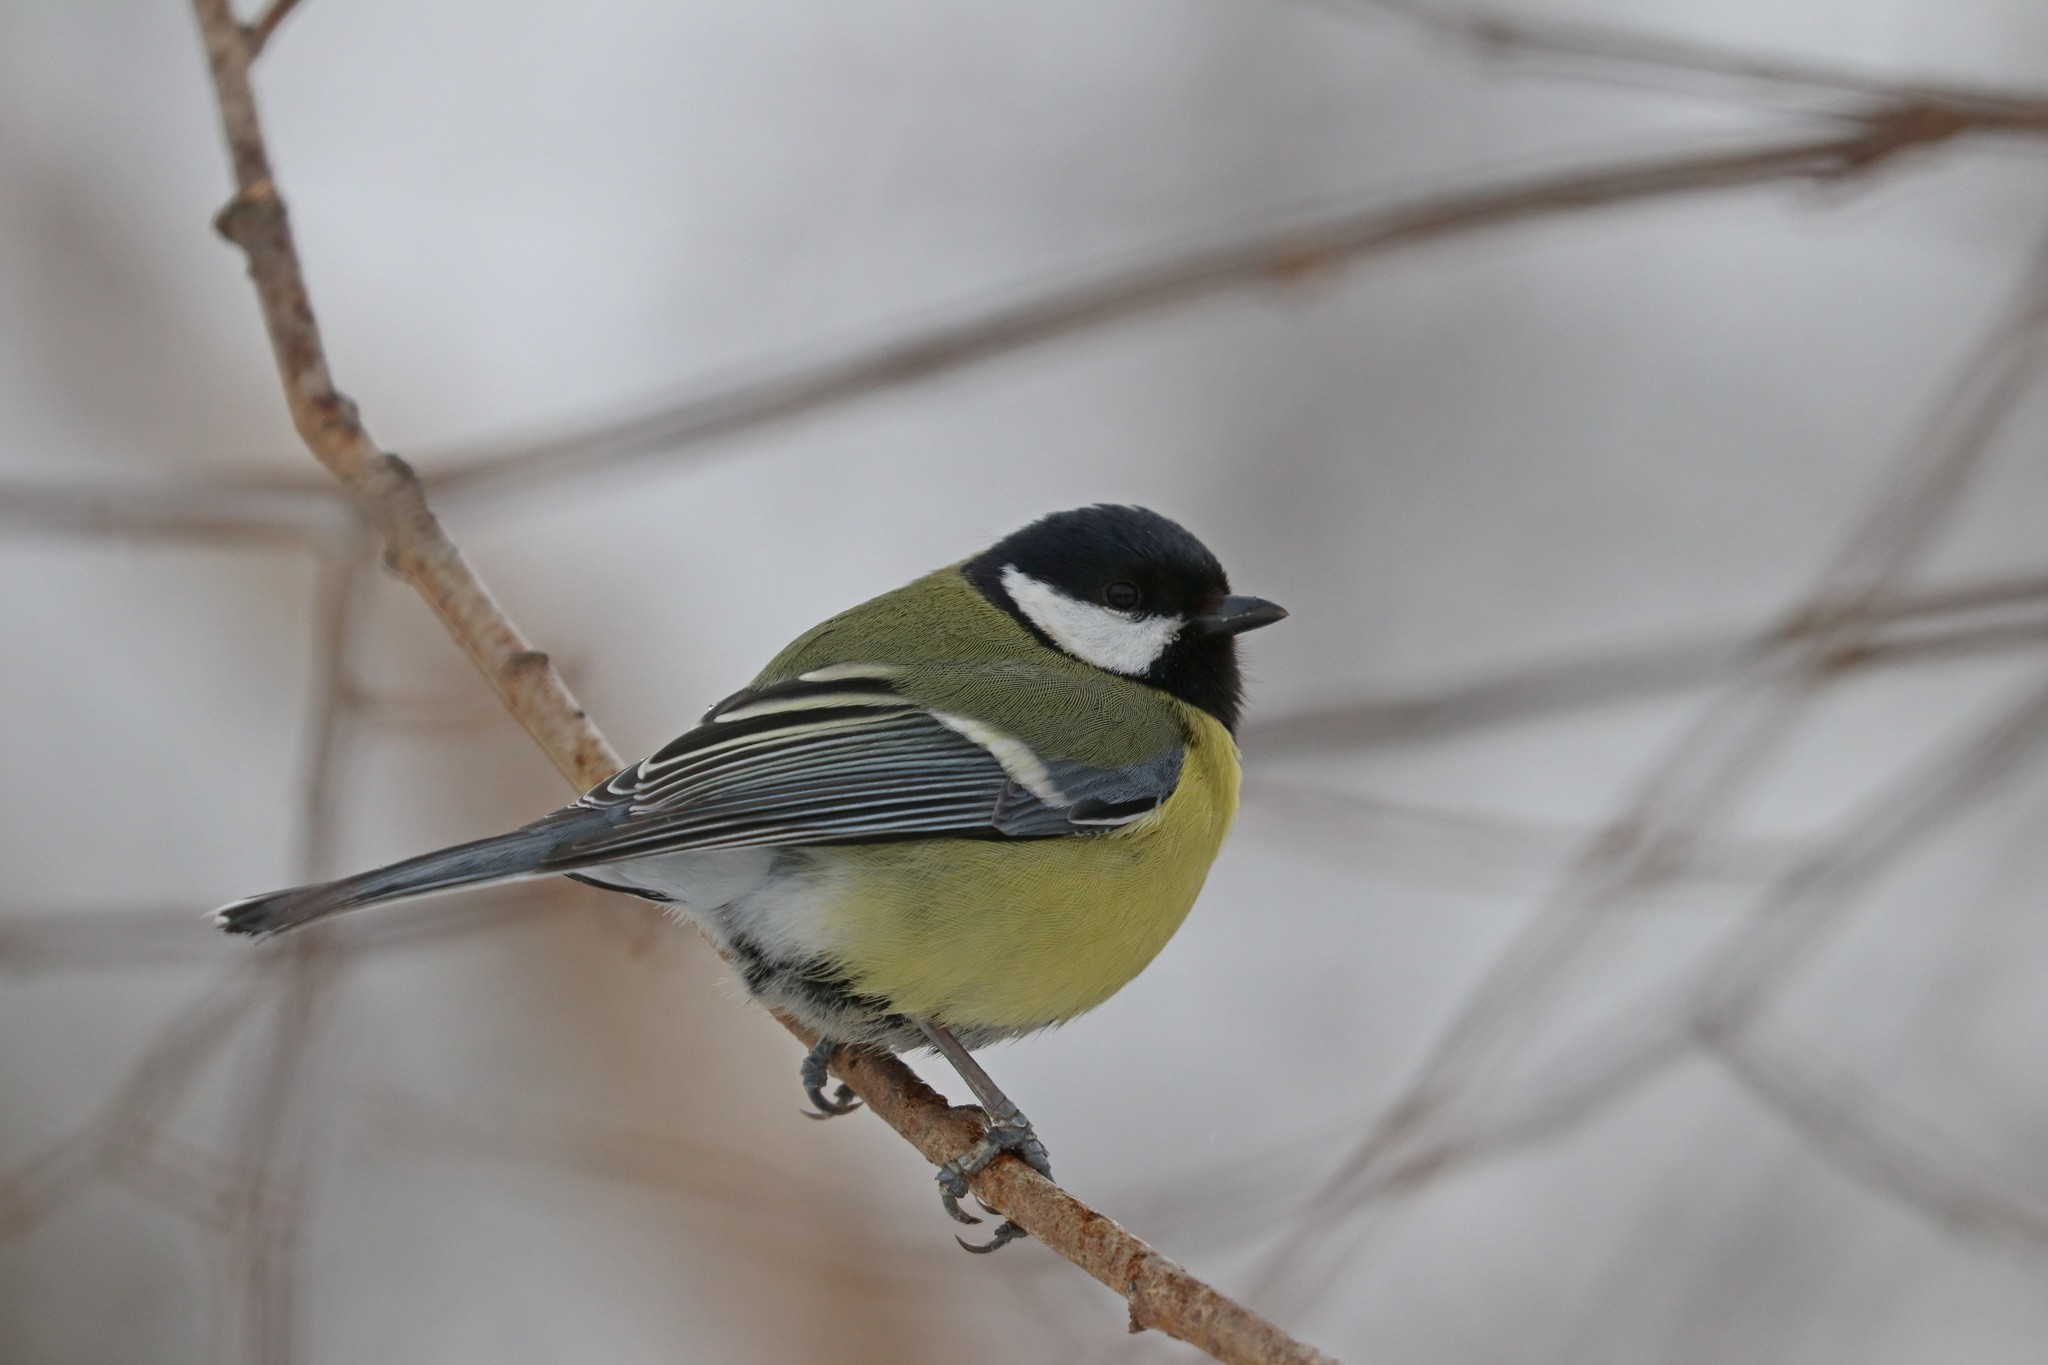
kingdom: Animalia
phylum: Chordata
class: Aves
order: Passeriformes
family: Paridae
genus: Parus
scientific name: Parus major
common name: Great tit
